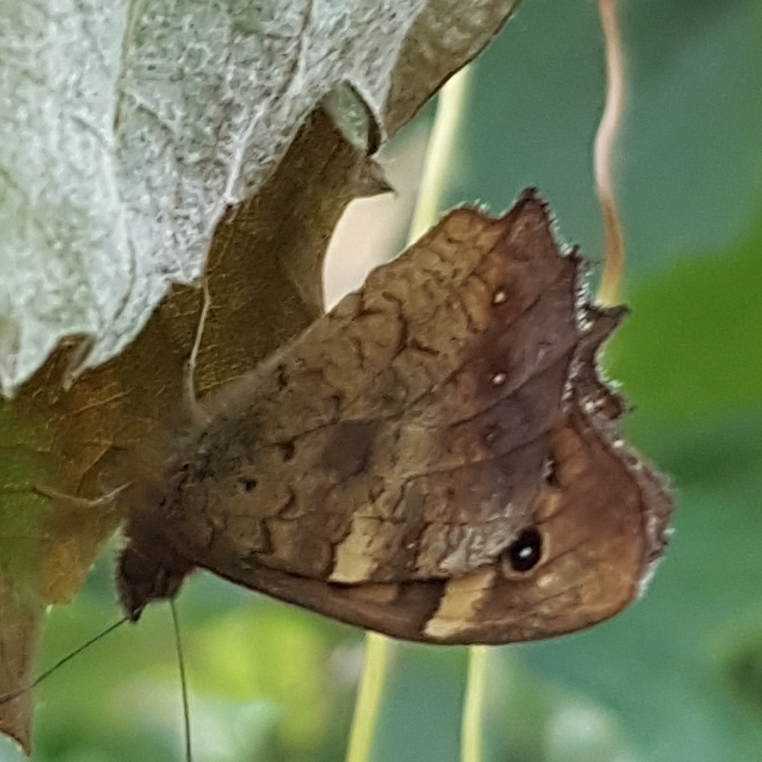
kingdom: Animalia
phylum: Arthropoda
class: Insecta
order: Lepidoptera
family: Nymphalidae
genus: Pararge
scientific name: Pararge aegeria
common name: Speckled wood
